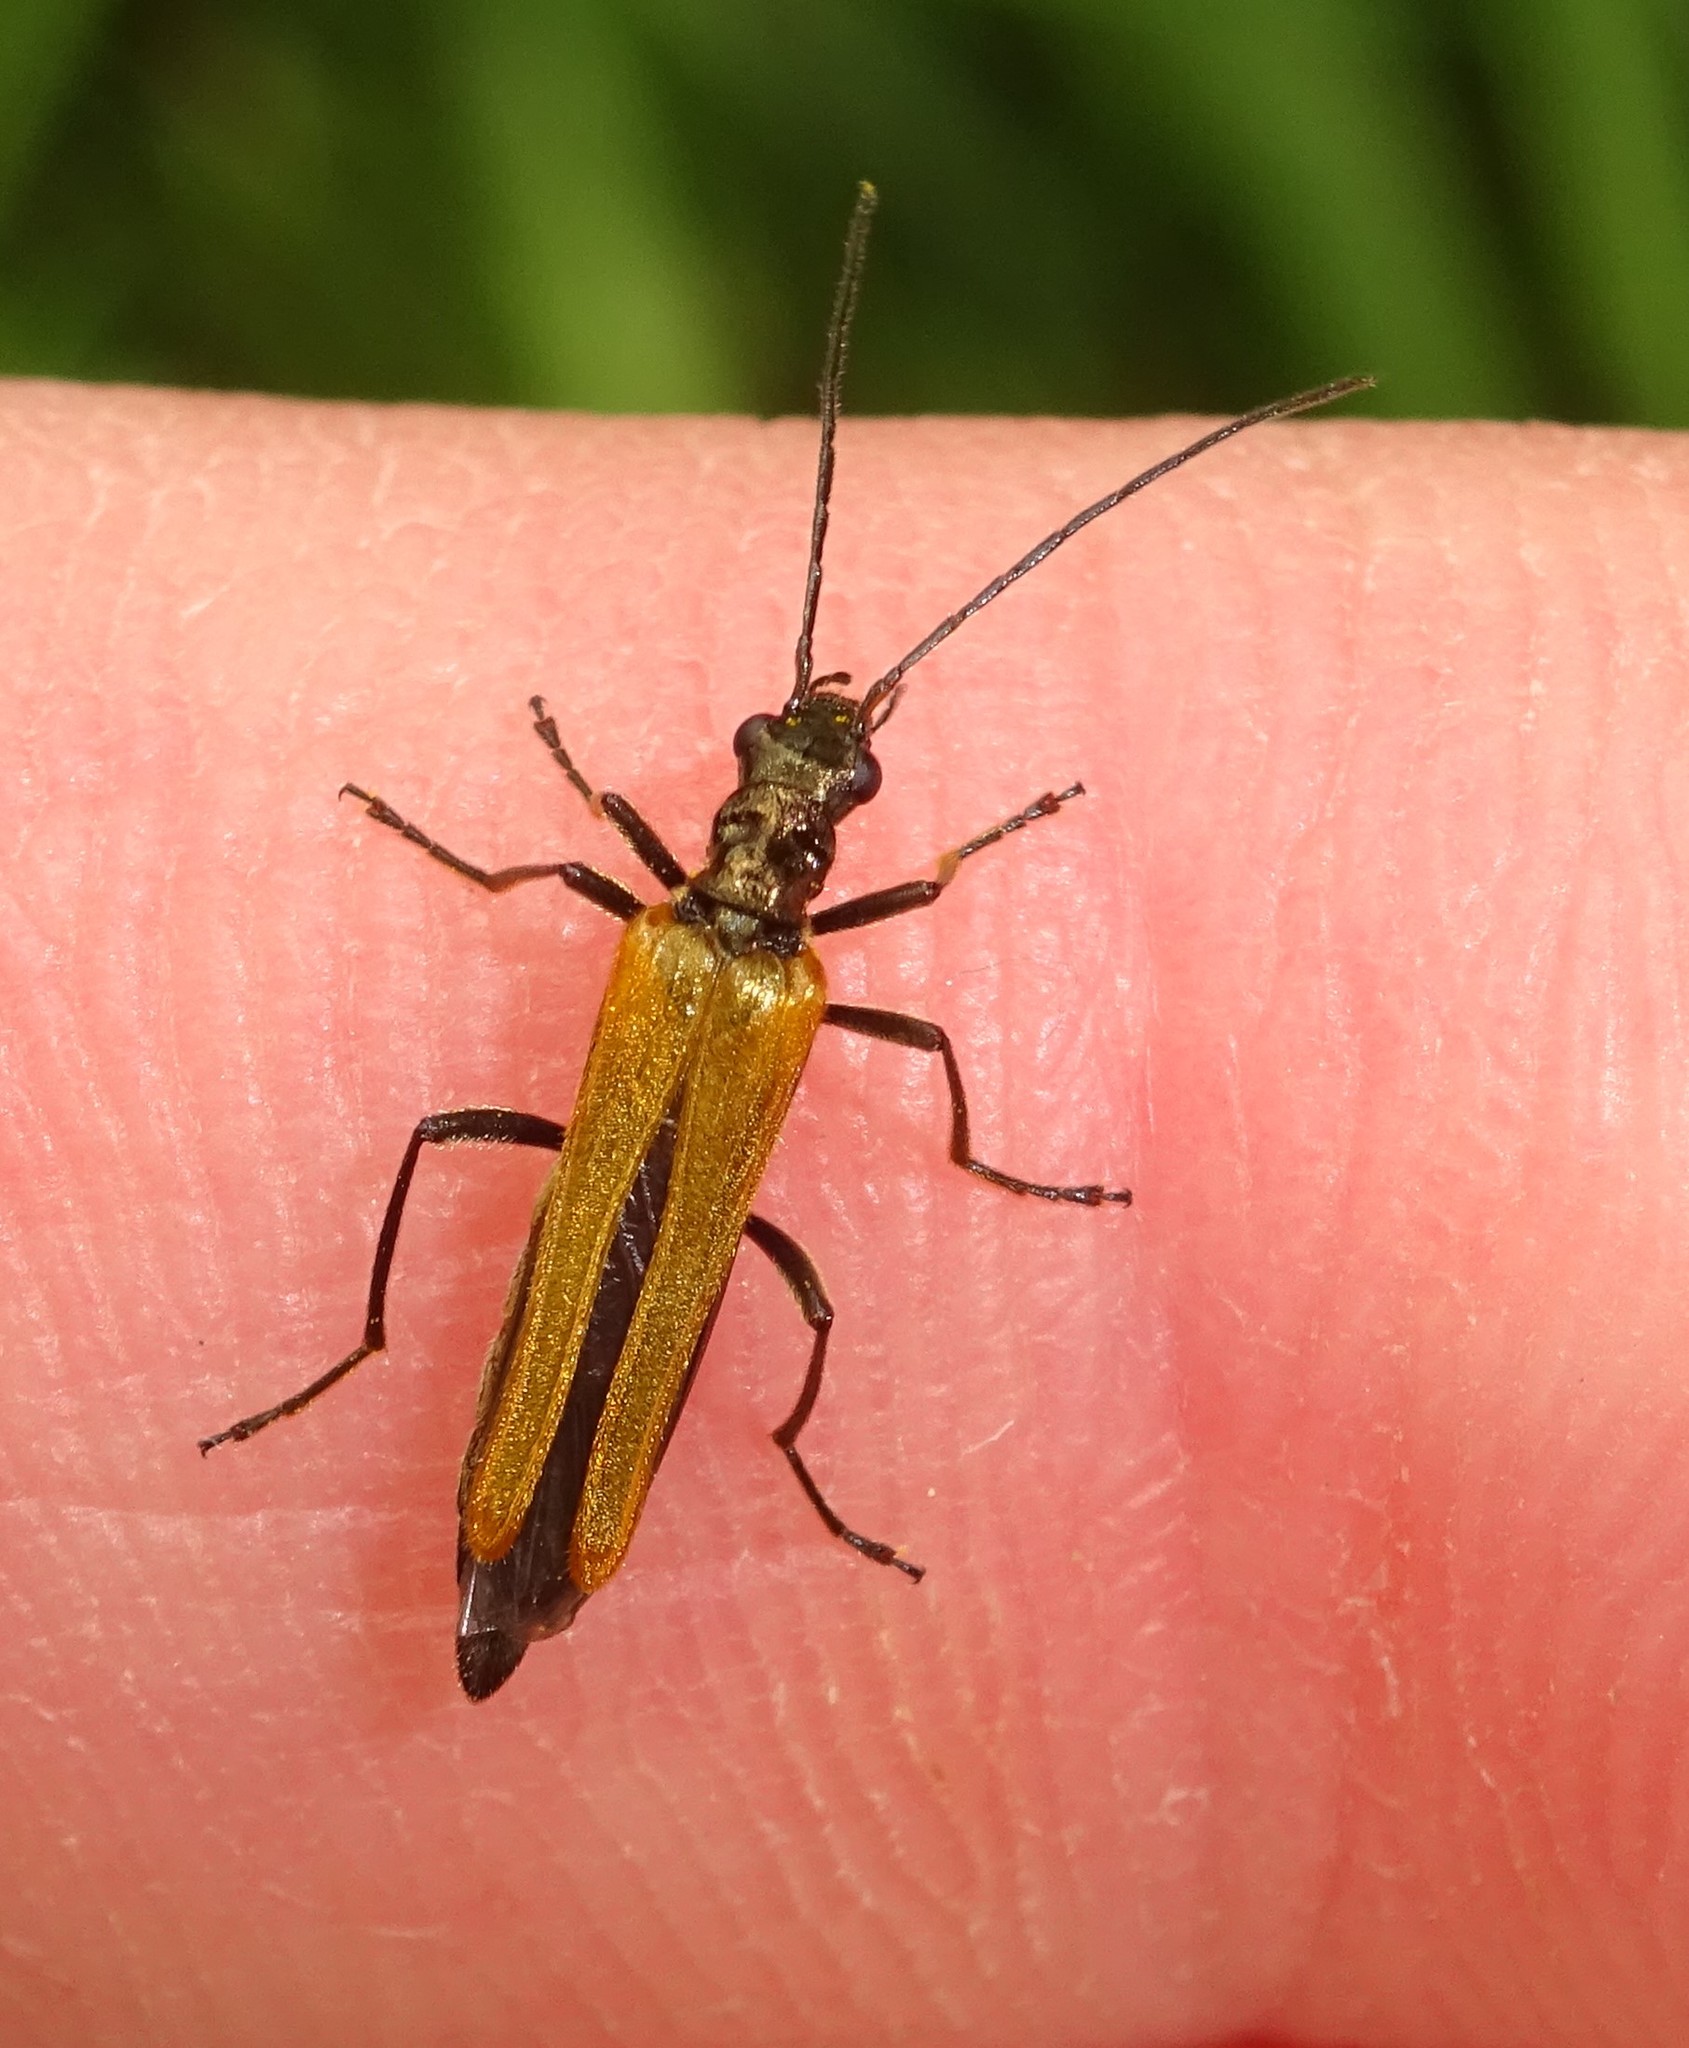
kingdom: Animalia
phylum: Arthropoda
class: Insecta
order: Coleoptera
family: Oedemeridae
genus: Oedemera
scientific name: Oedemera podagrariae
